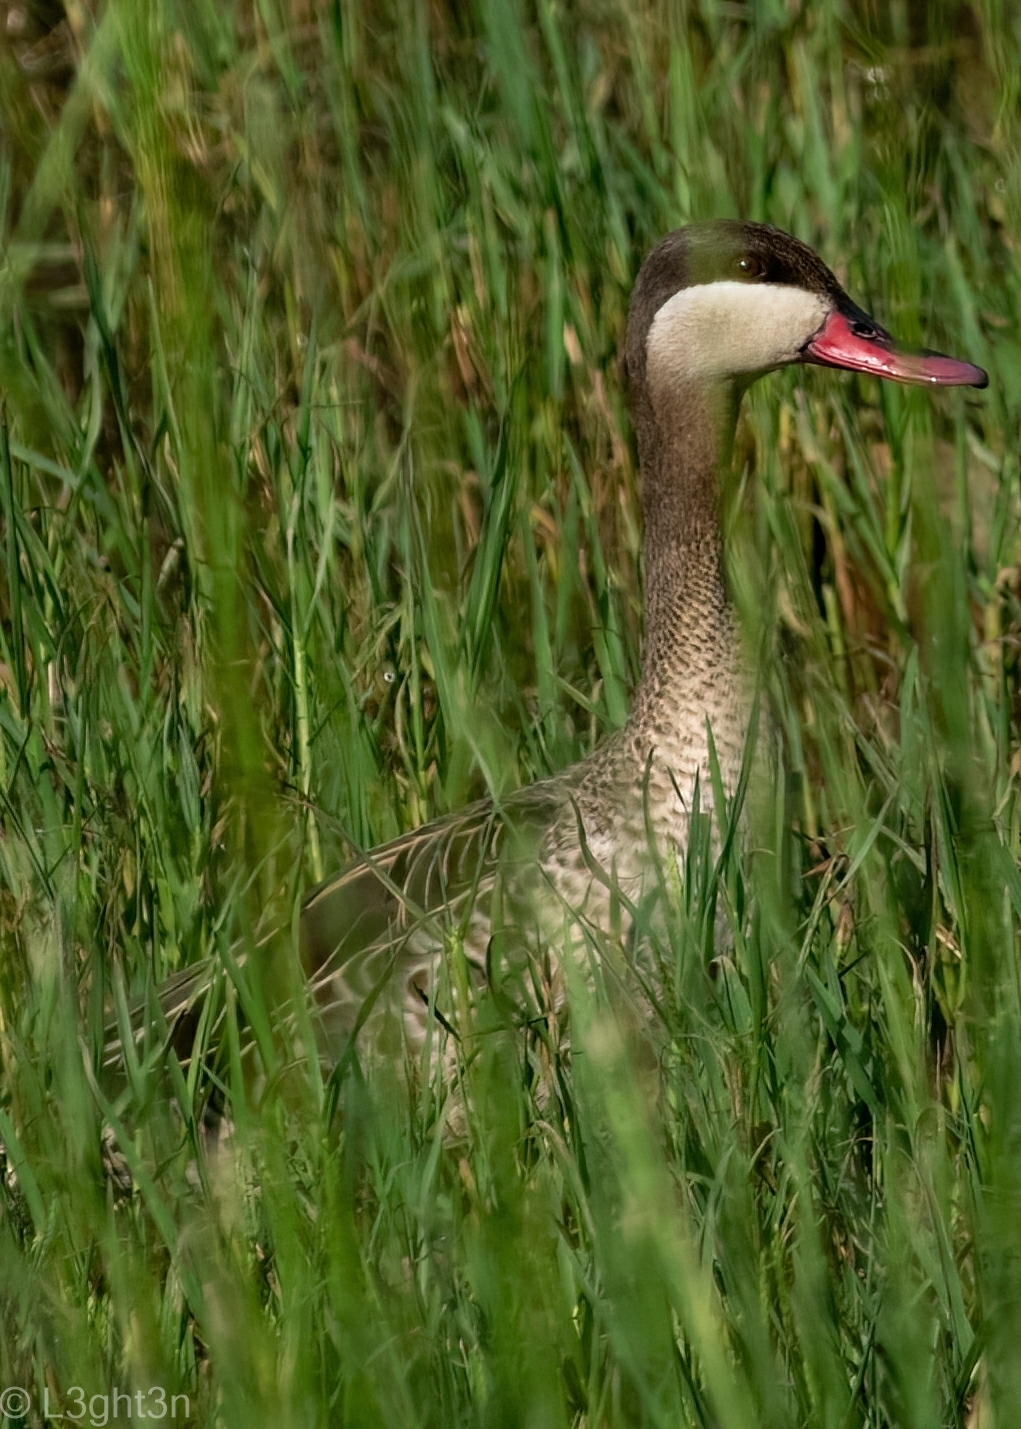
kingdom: Animalia
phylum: Chordata
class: Aves
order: Anseriformes
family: Anatidae
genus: Anas
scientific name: Anas erythrorhyncha
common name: Red-billed teal
